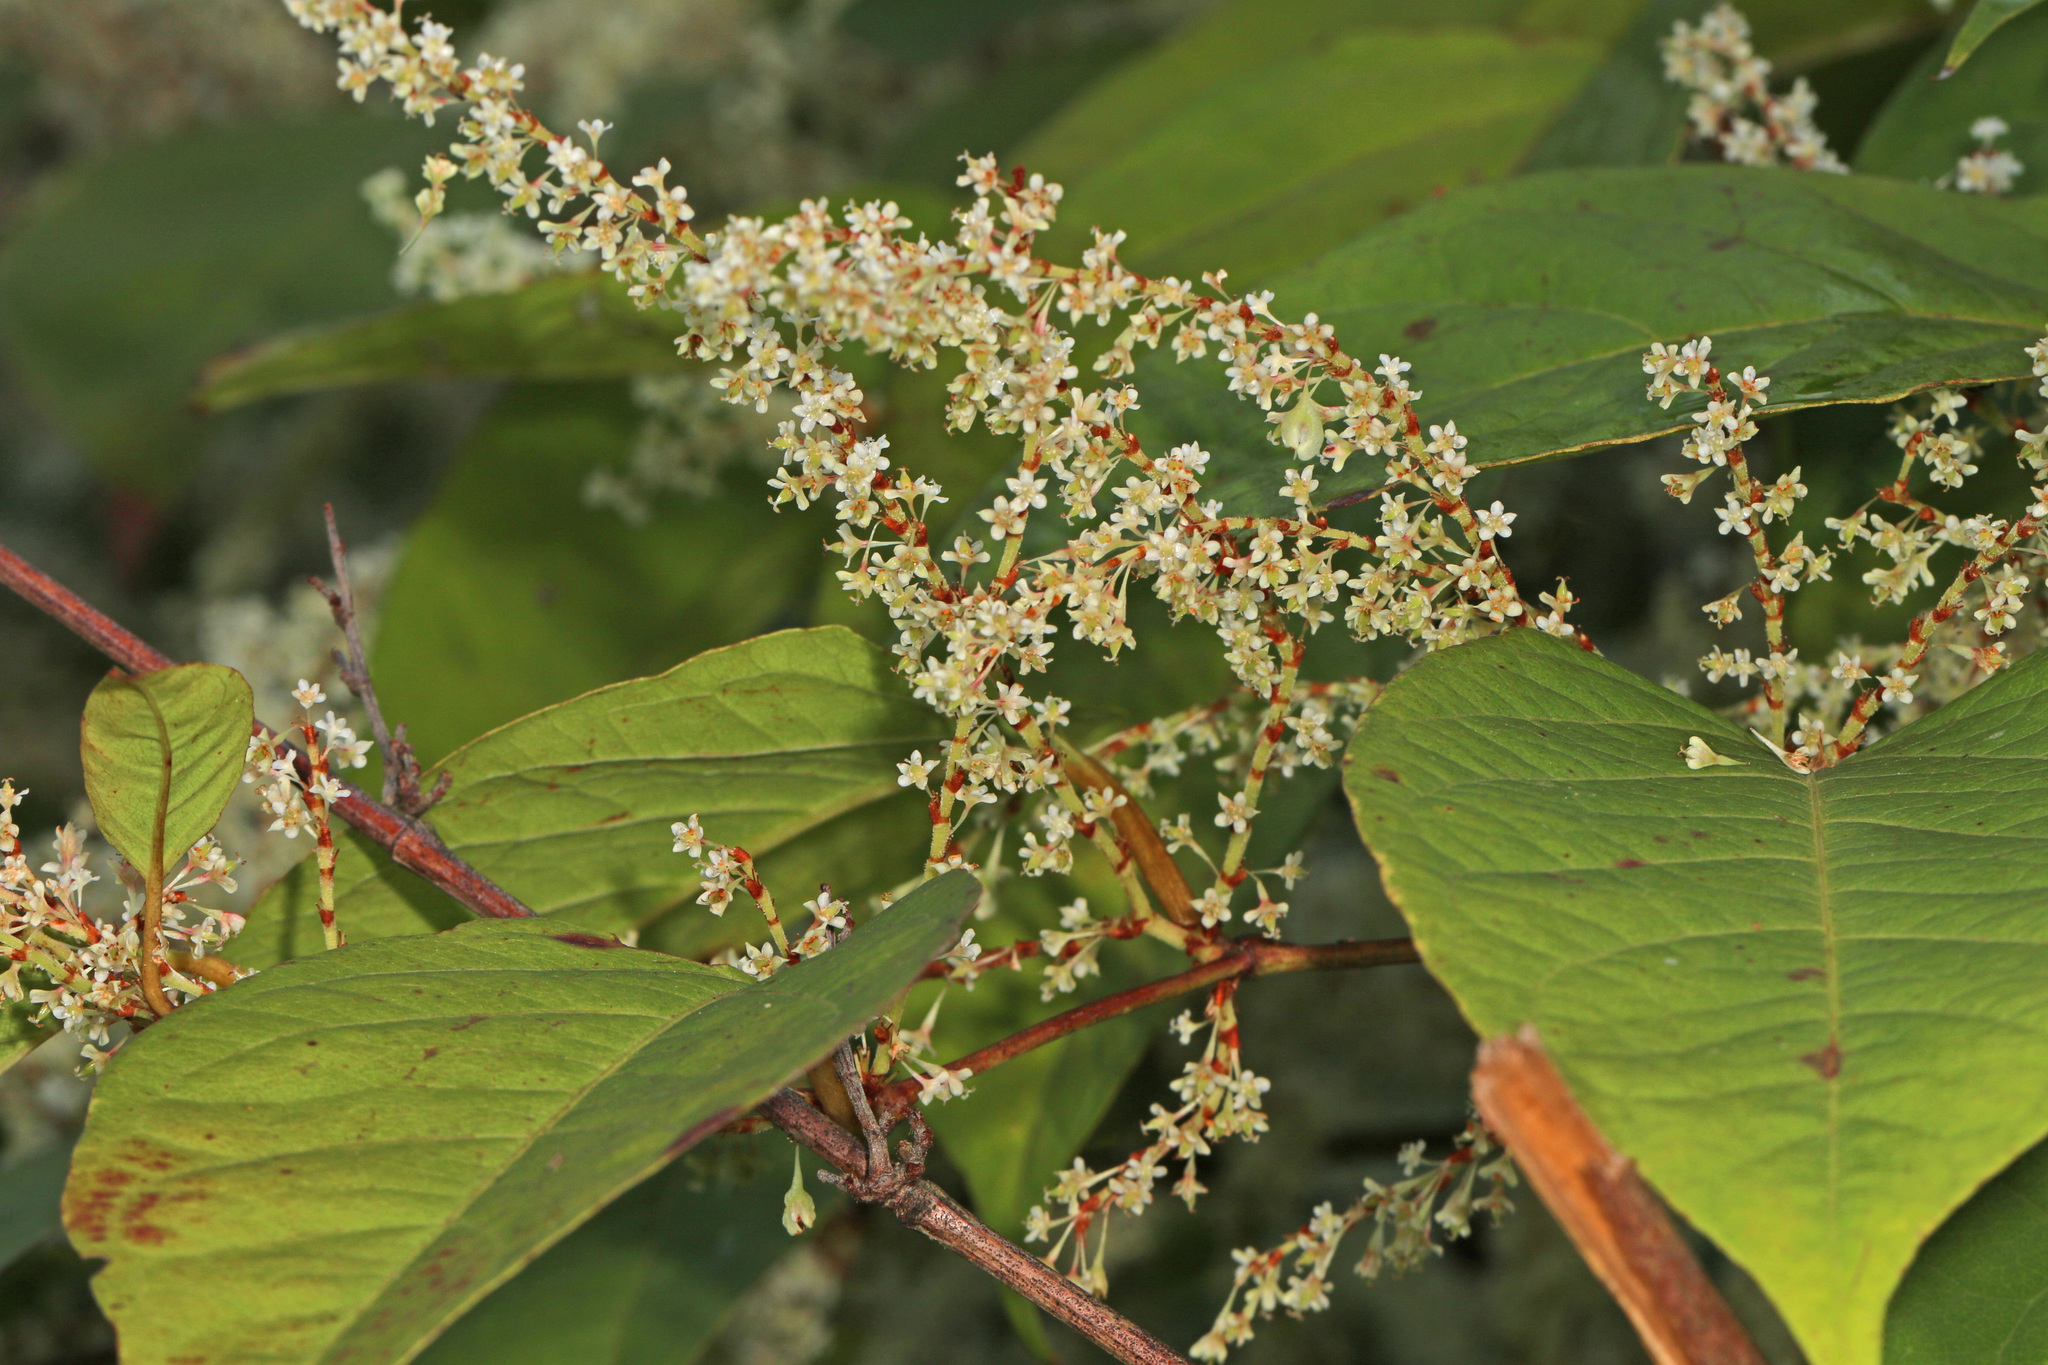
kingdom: Plantae
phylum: Tracheophyta
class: Magnoliopsida
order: Caryophyllales
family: Polygonaceae
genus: Reynoutria
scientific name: Reynoutria japonica
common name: Japanese knotweed
